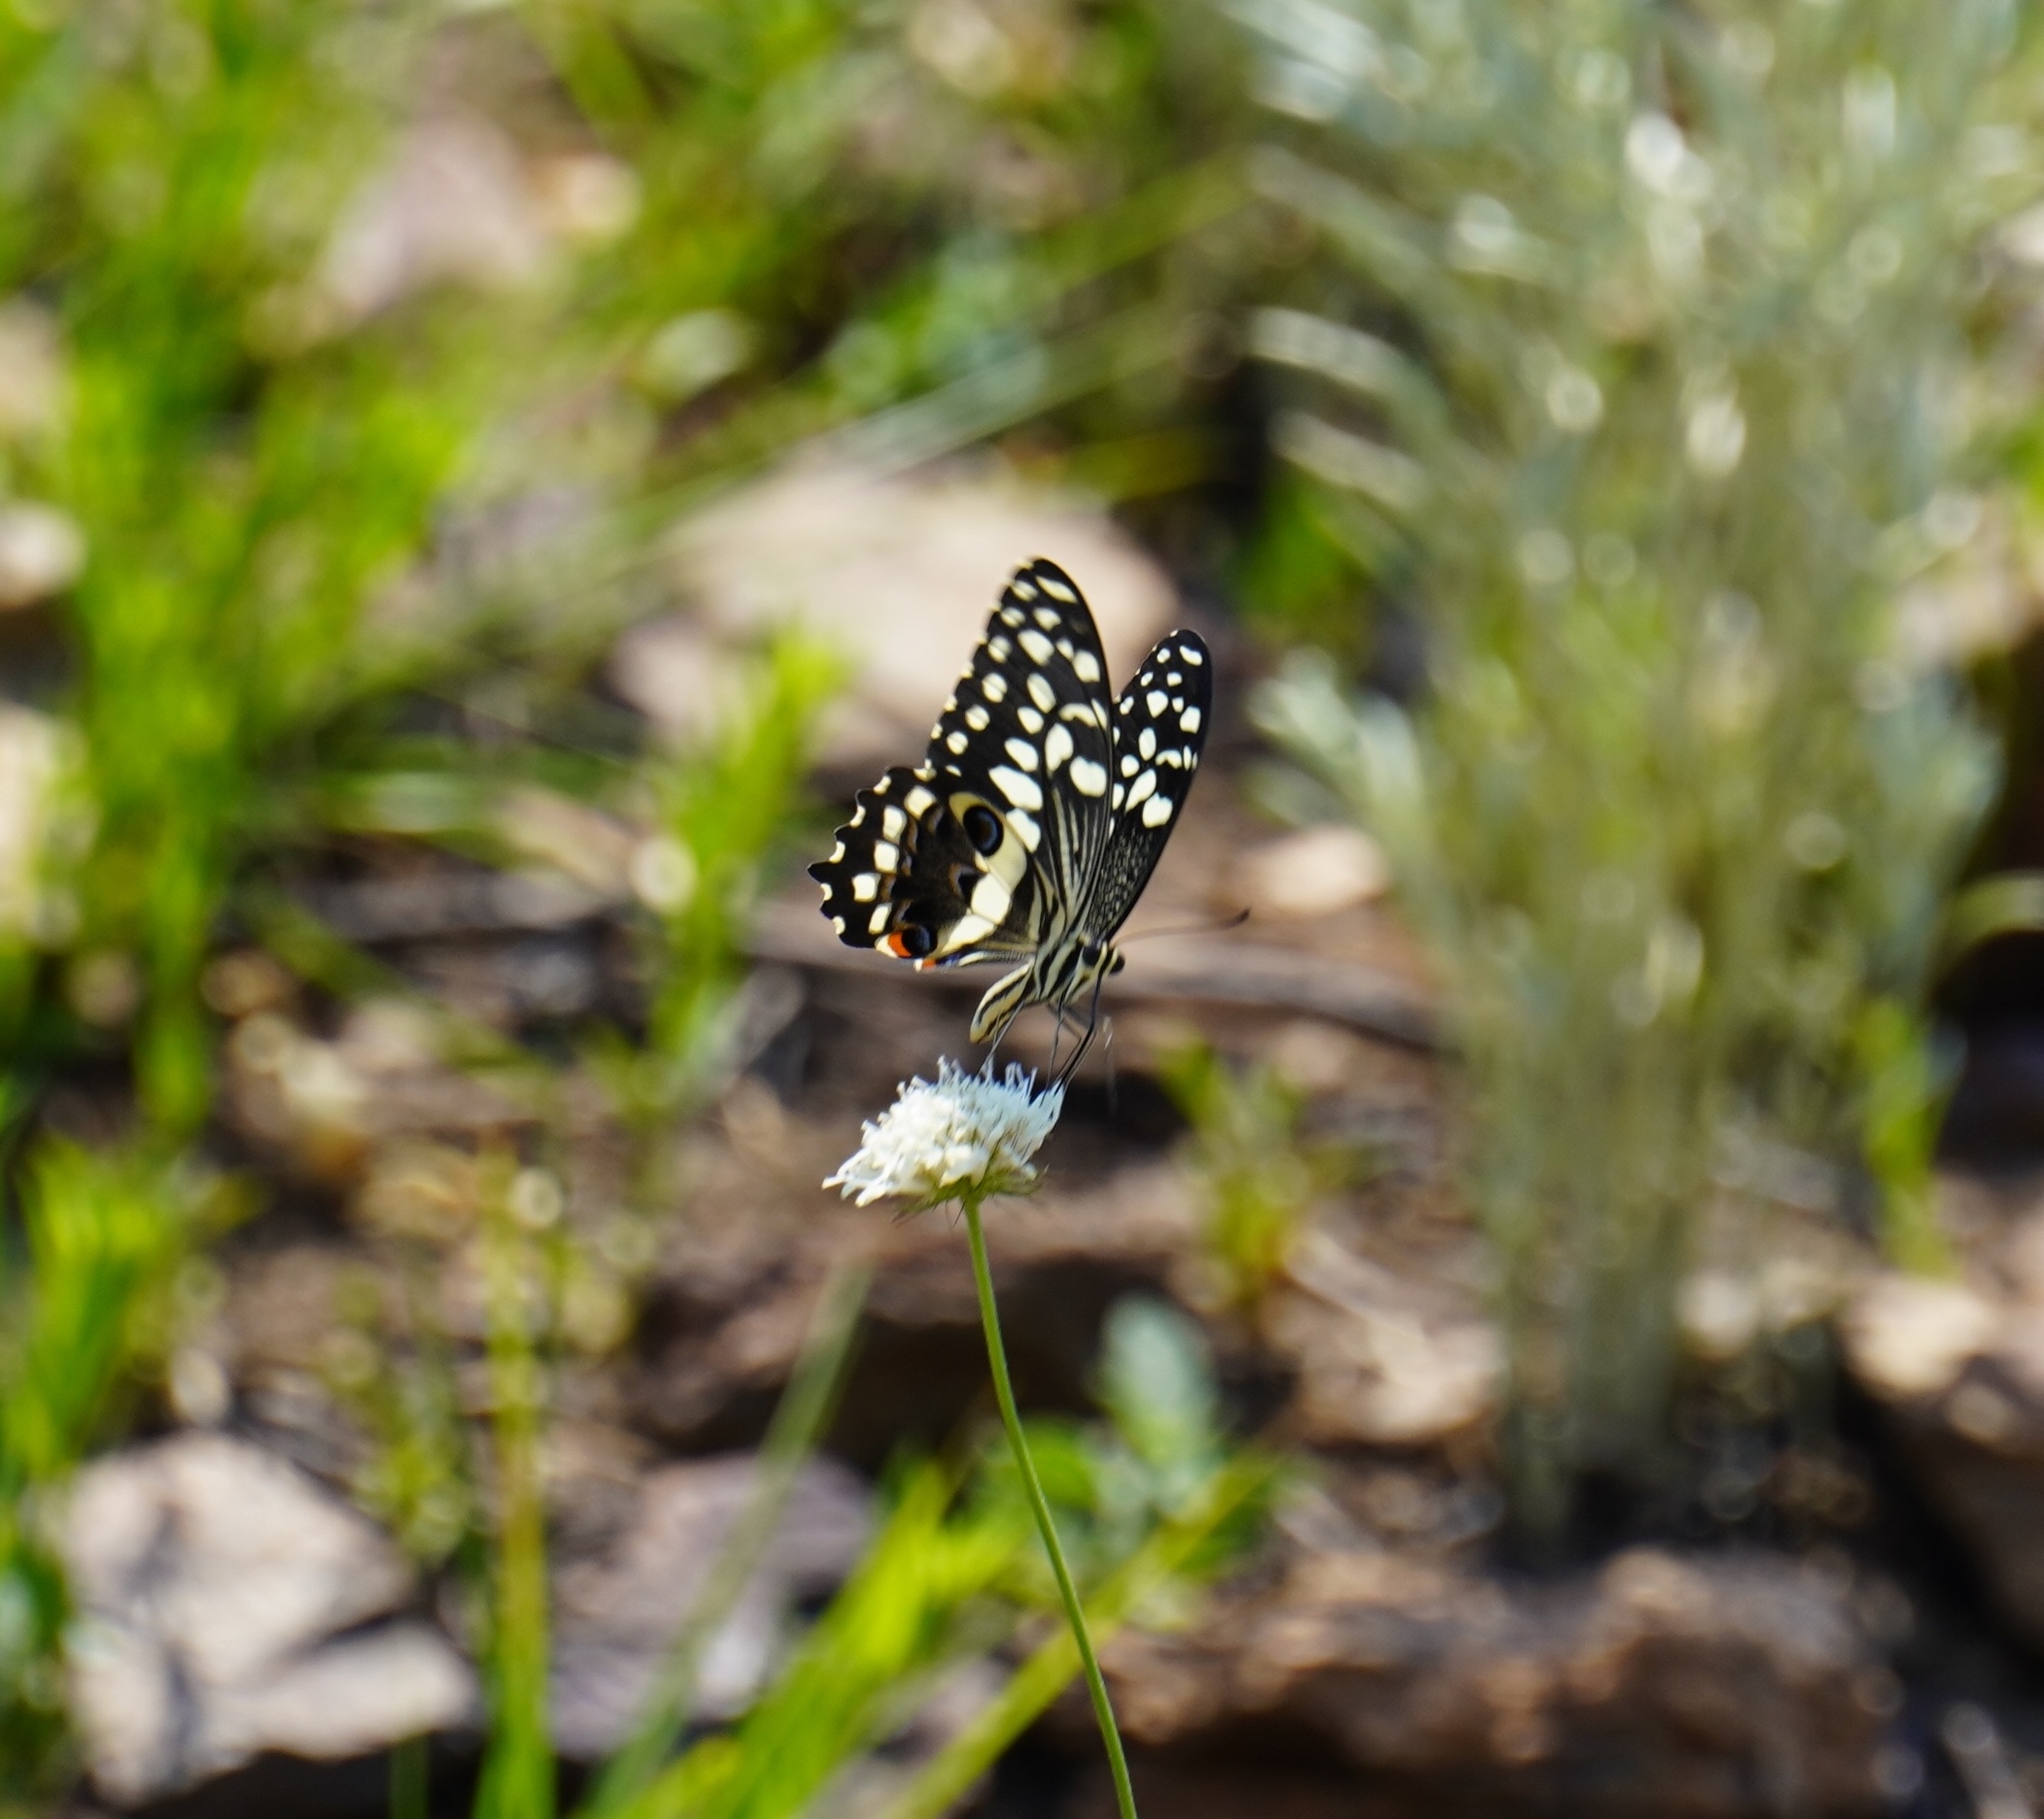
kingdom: Animalia
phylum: Arthropoda
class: Insecta
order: Lepidoptera
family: Papilionidae
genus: Papilio
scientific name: Papilio demodocus
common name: Christmas butterfly
